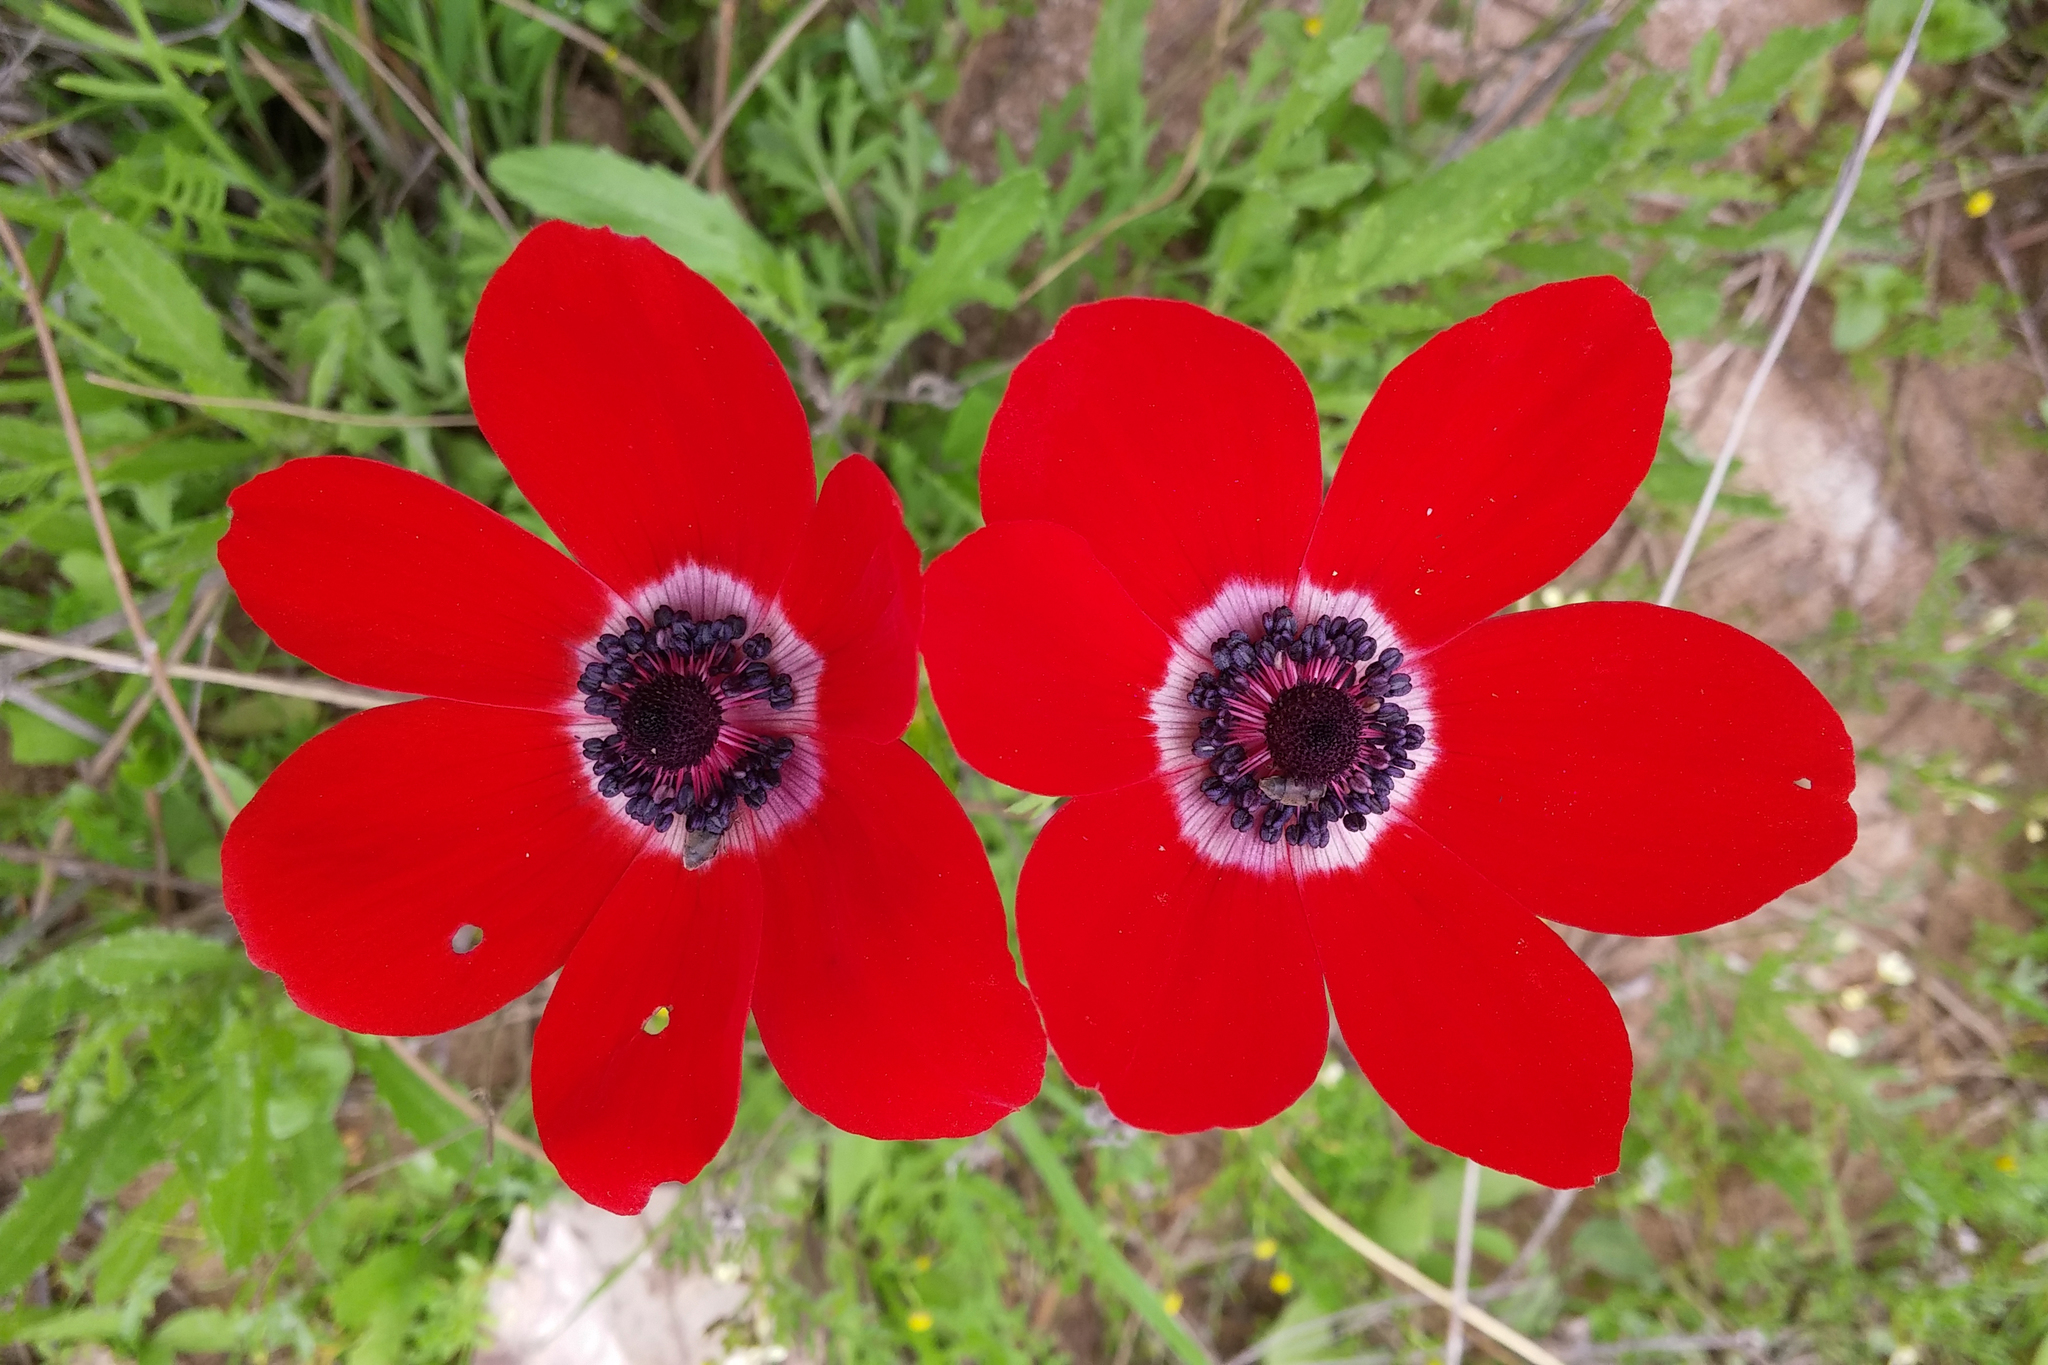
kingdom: Plantae
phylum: Tracheophyta
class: Magnoliopsida
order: Ranunculales
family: Ranunculaceae
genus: Anemone
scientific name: Anemone coronaria
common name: Poppy anemone
